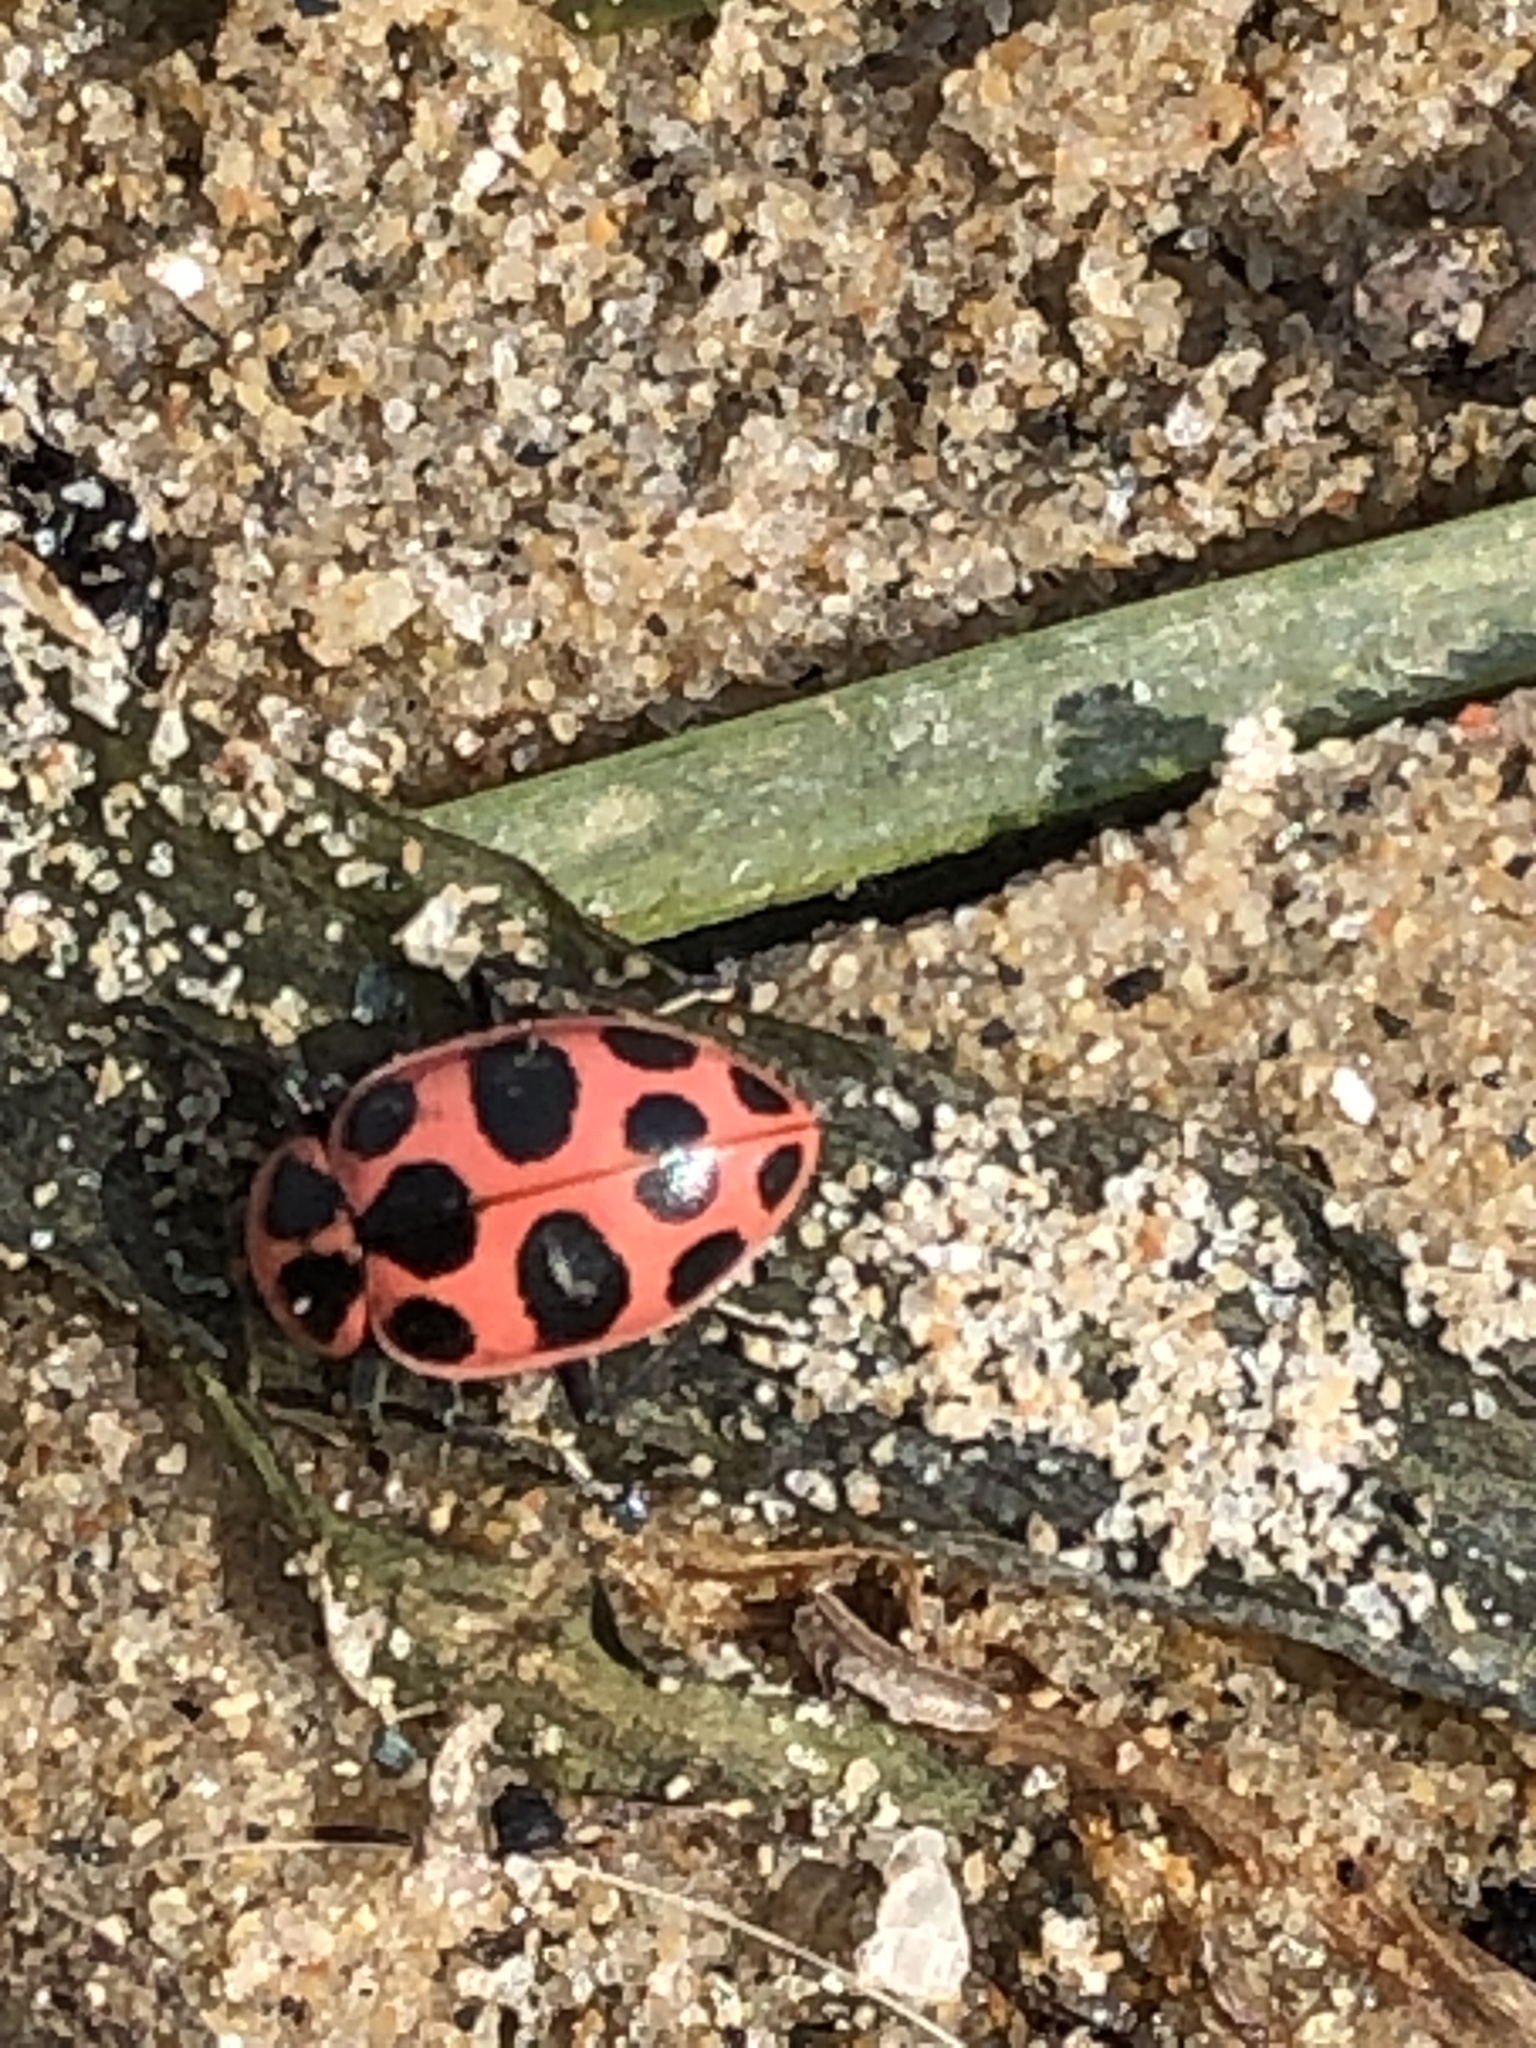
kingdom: Animalia
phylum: Arthropoda
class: Insecta
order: Coleoptera
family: Coccinellidae
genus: Coleomegilla
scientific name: Coleomegilla maculata
